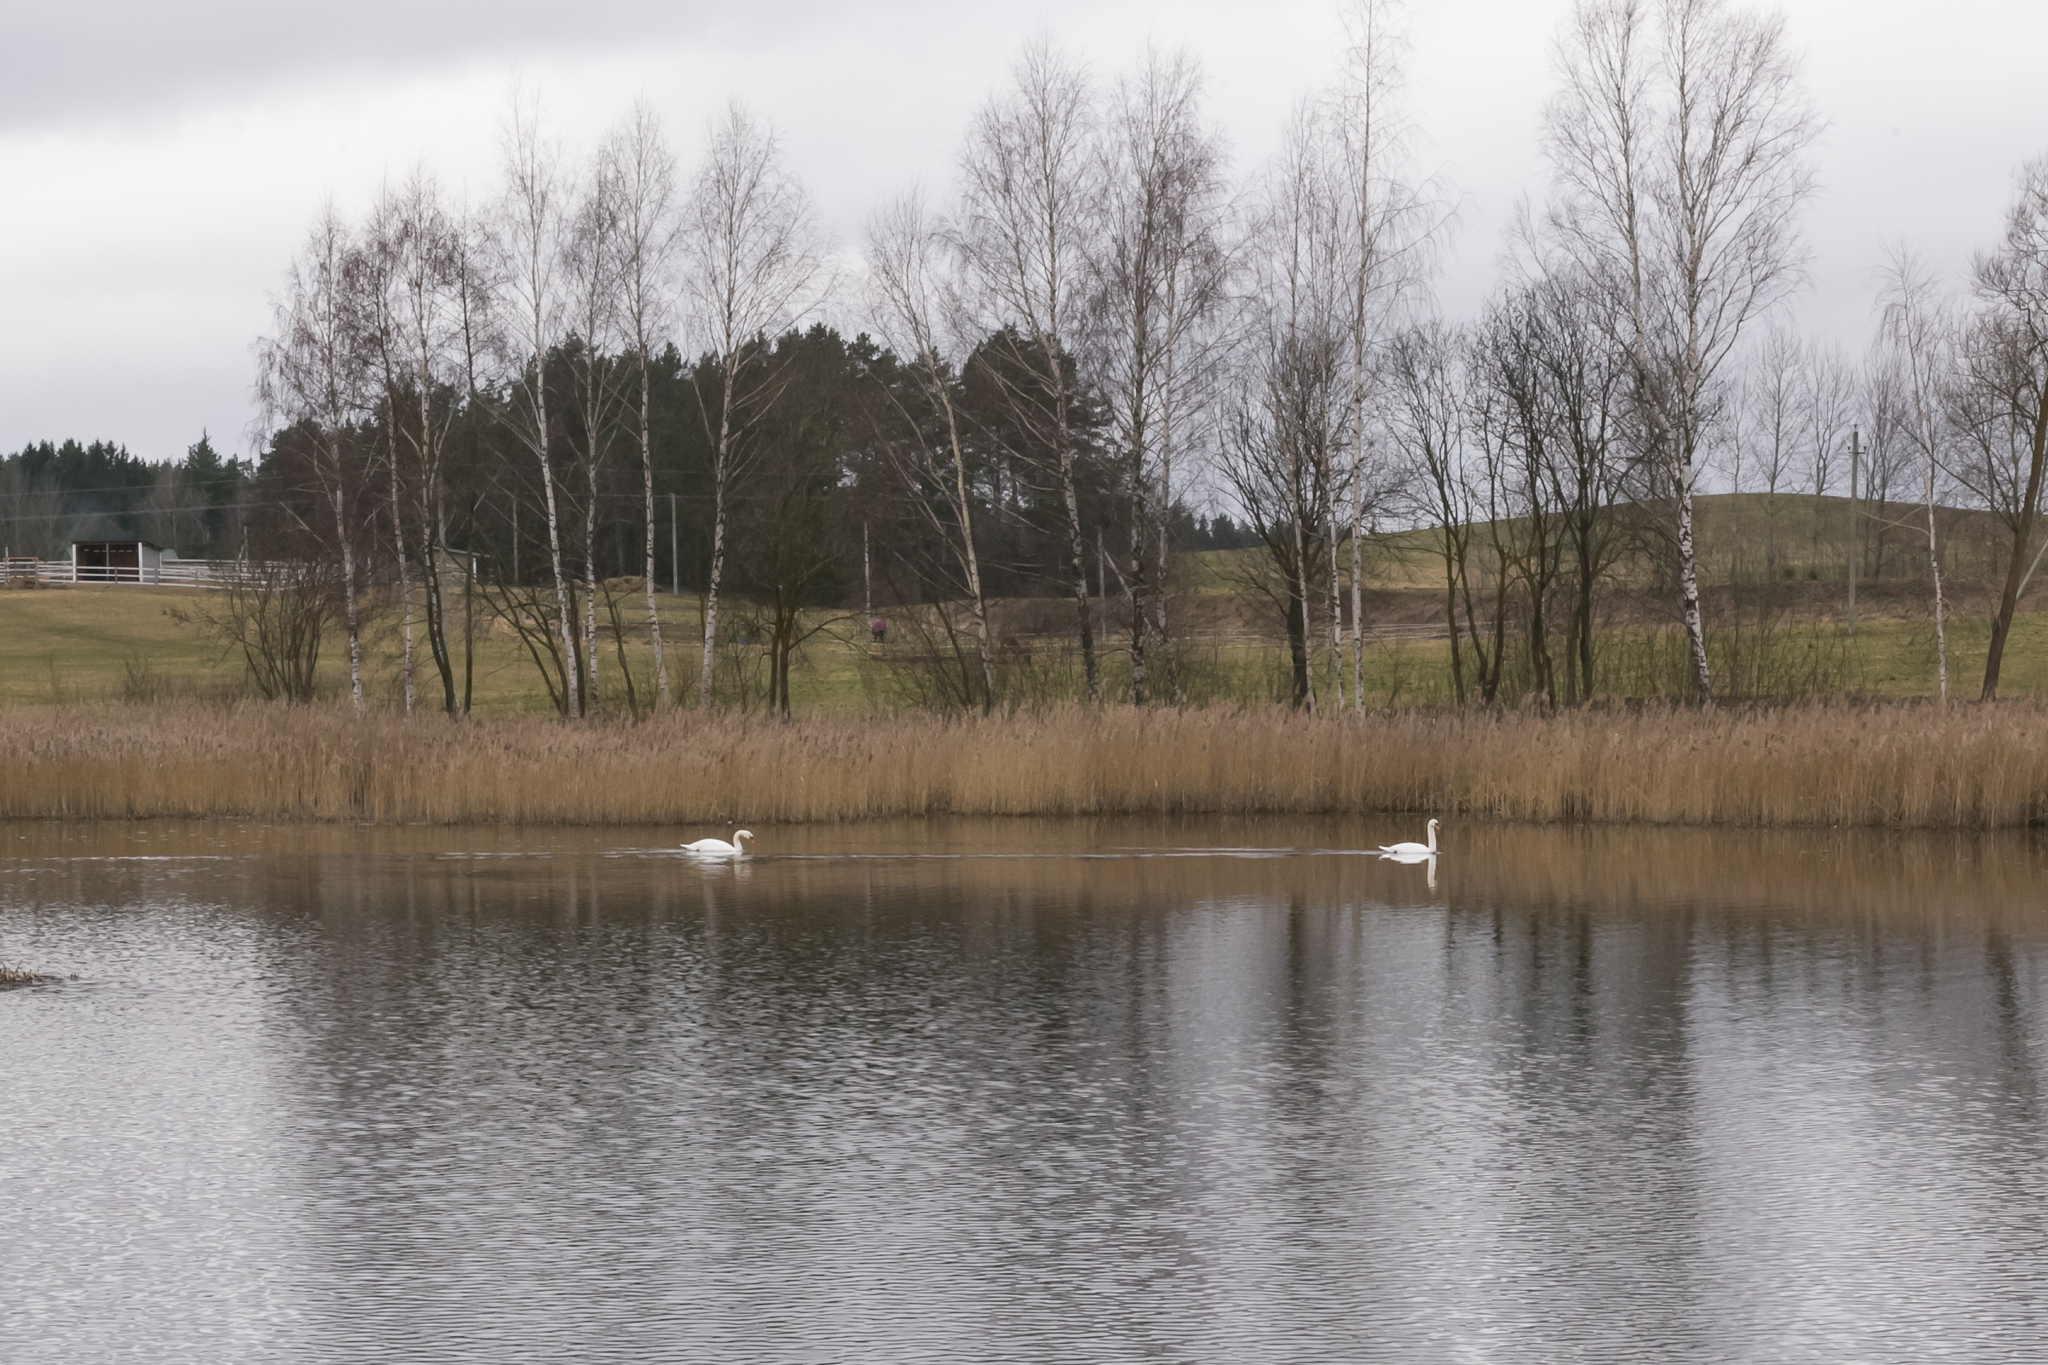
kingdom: Animalia
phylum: Chordata
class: Aves
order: Anseriformes
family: Anatidae
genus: Cygnus
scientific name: Cygnus olor
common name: Mute swan
